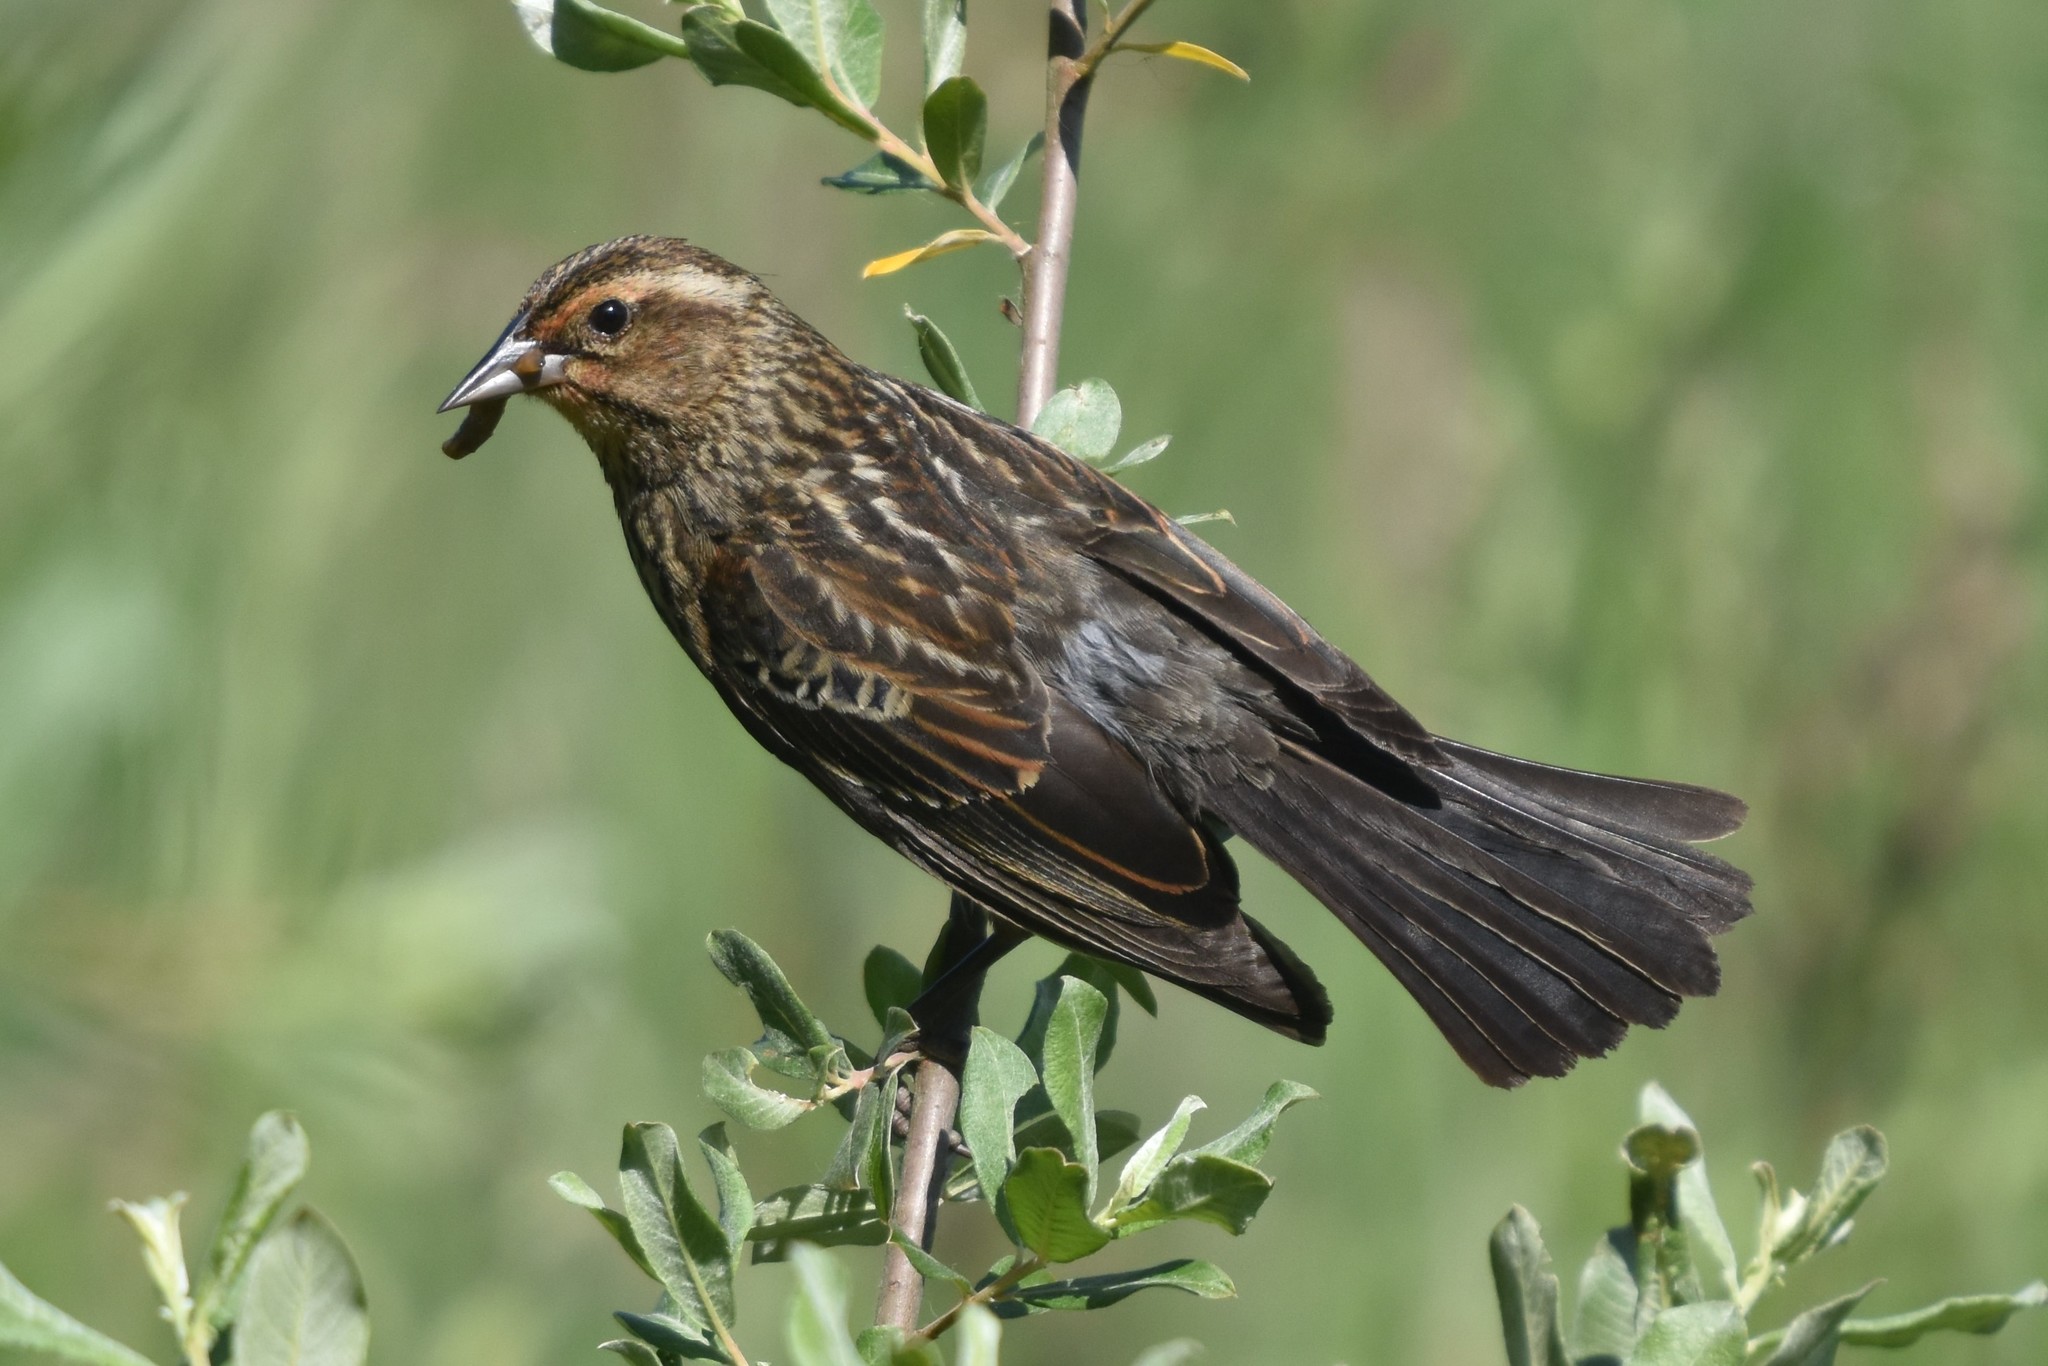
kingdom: Animalia
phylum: Chordata
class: Aves
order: Passeriformes
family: Icteridae
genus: Agelaius
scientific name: Agelaius phoeniceus
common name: Red-winged blackbird
